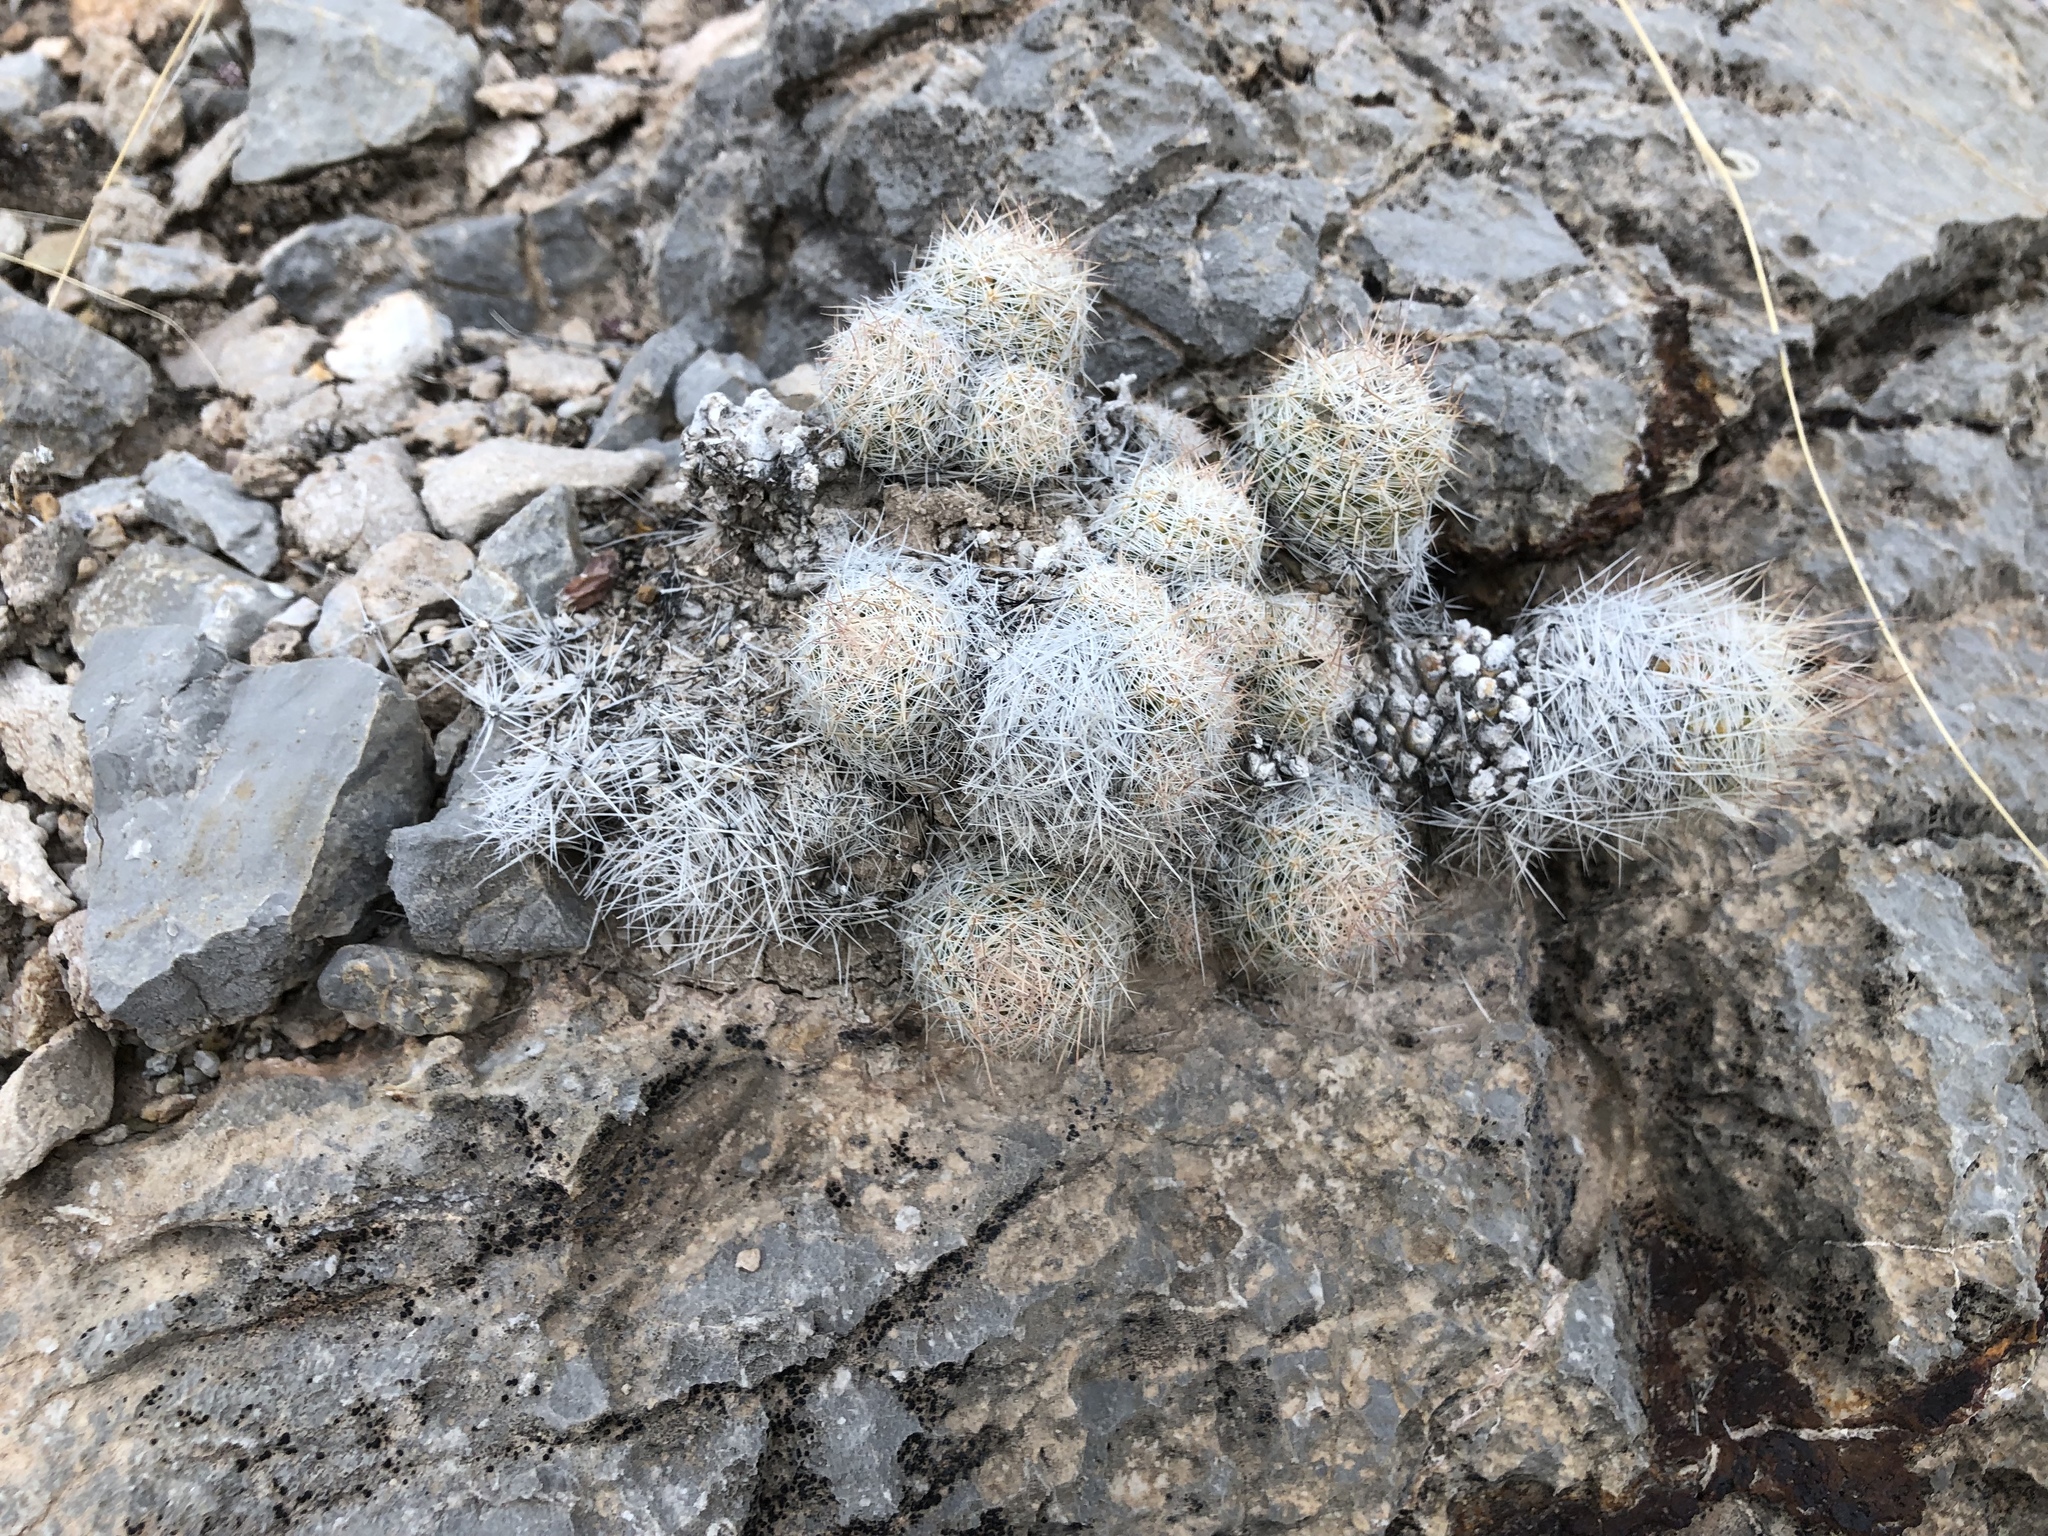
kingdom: Plantae
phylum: Tracheophyta
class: Magnoliopsida
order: Caryophyllales
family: Cactaceae
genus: Pelecyphora
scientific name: Pelecyphora tuberculosa
